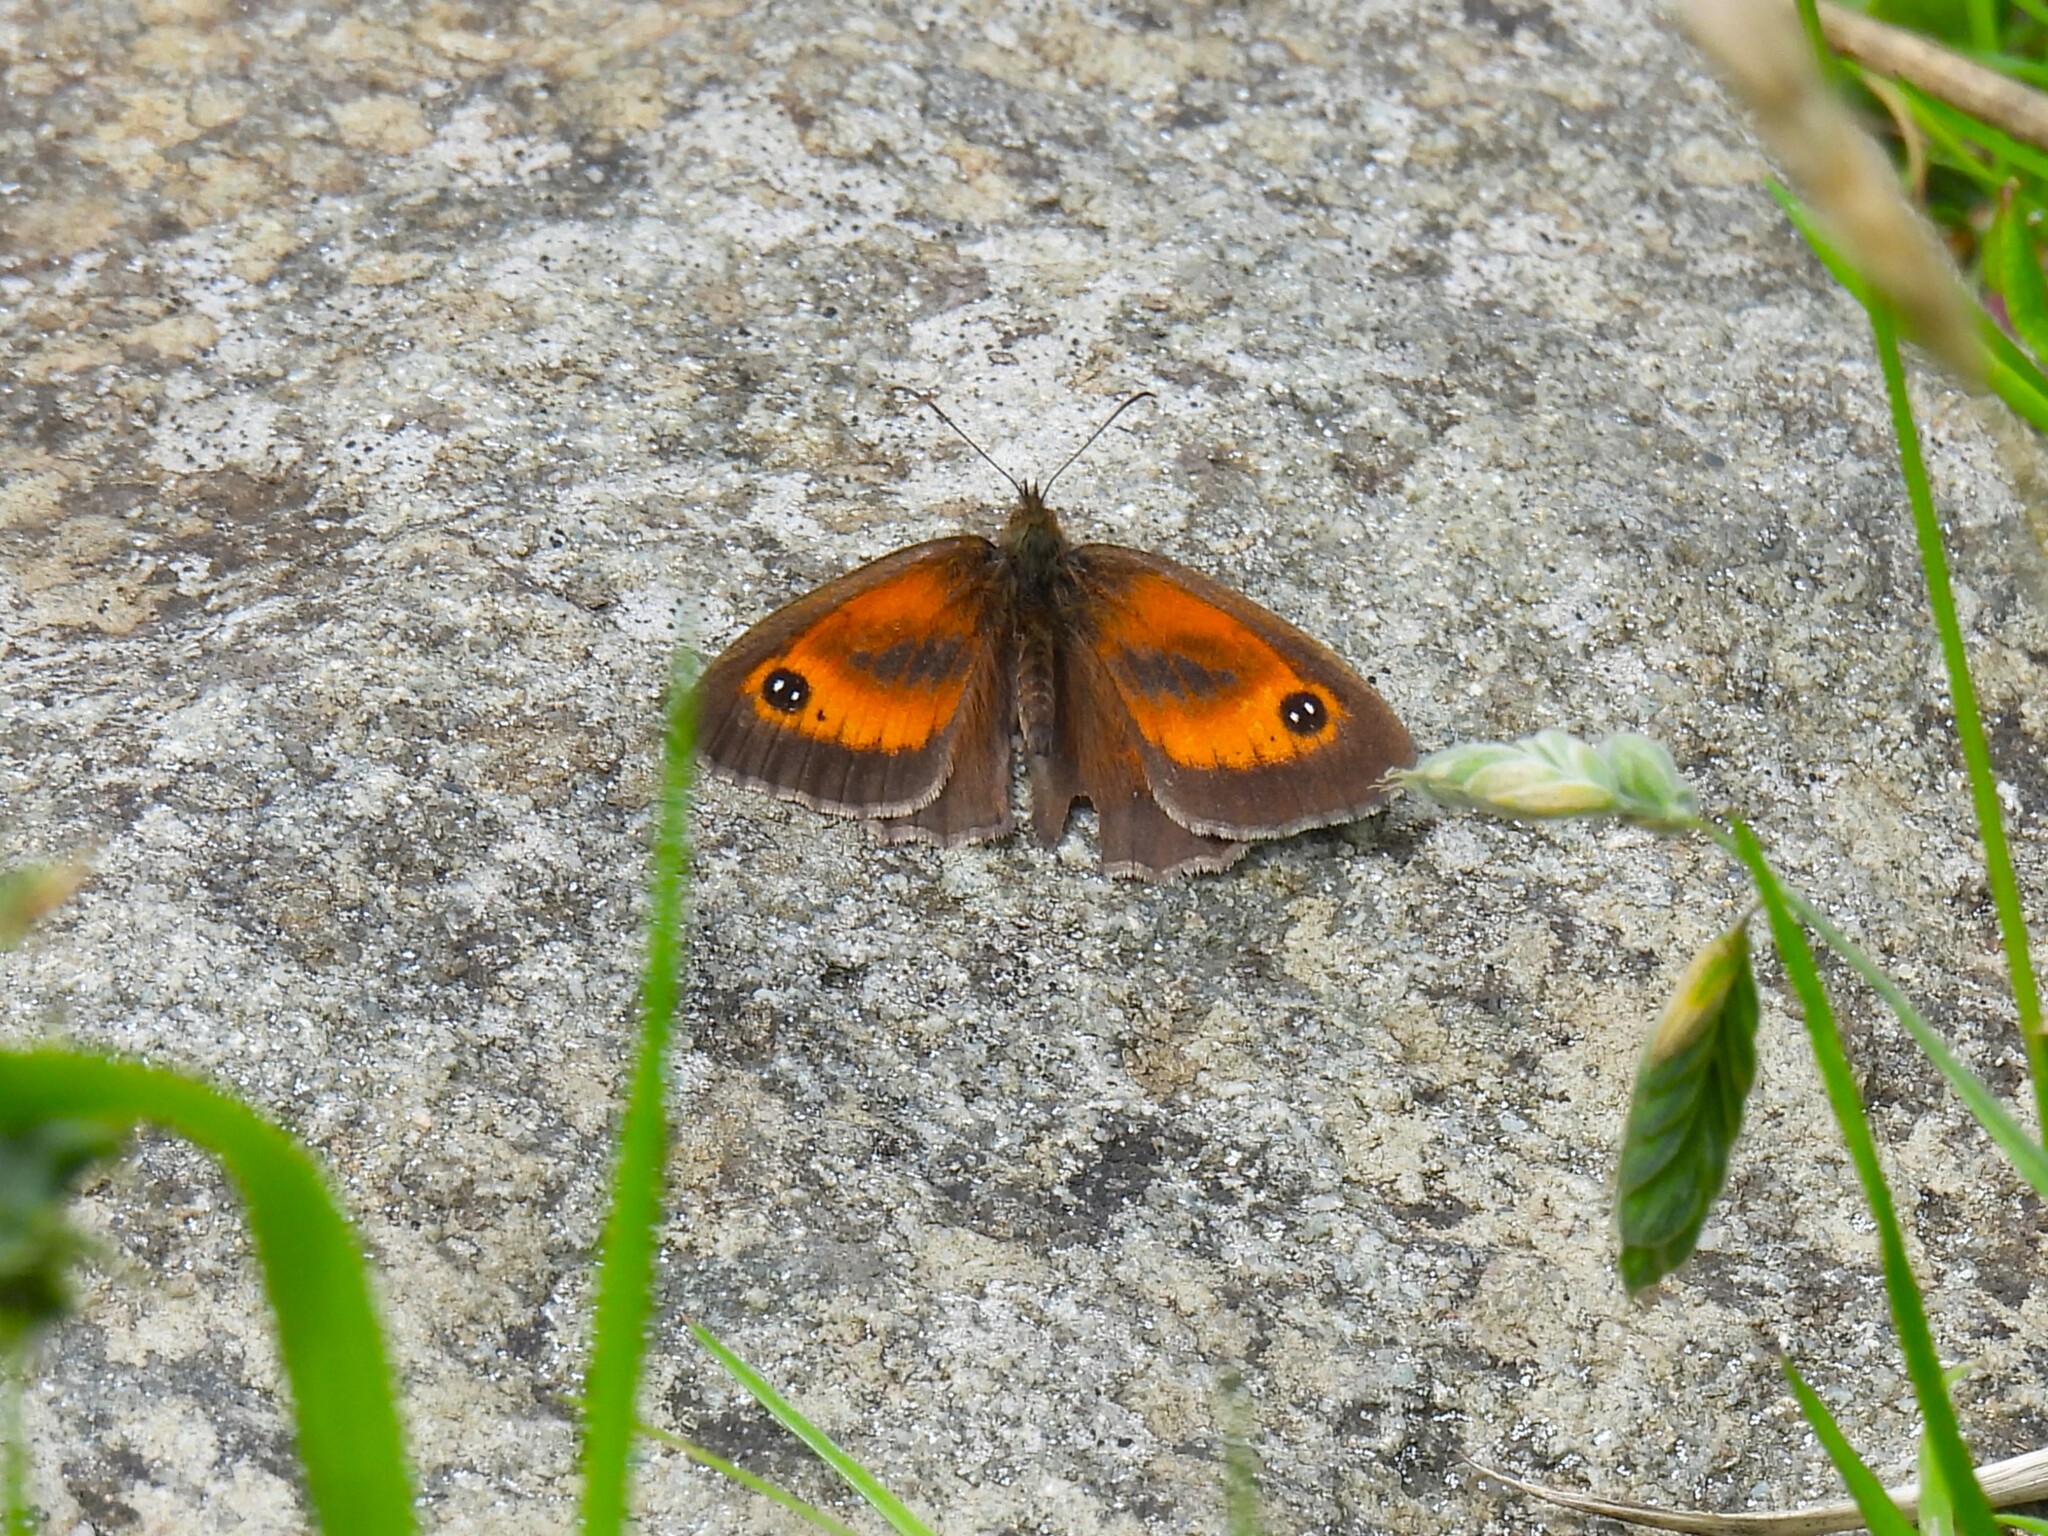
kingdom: Animalia
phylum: Arthropoda
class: Insecta
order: Lepidoptera
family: Nymphalidae
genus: Pyronia
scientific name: Pyronia tithonus
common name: Gatekeeper
